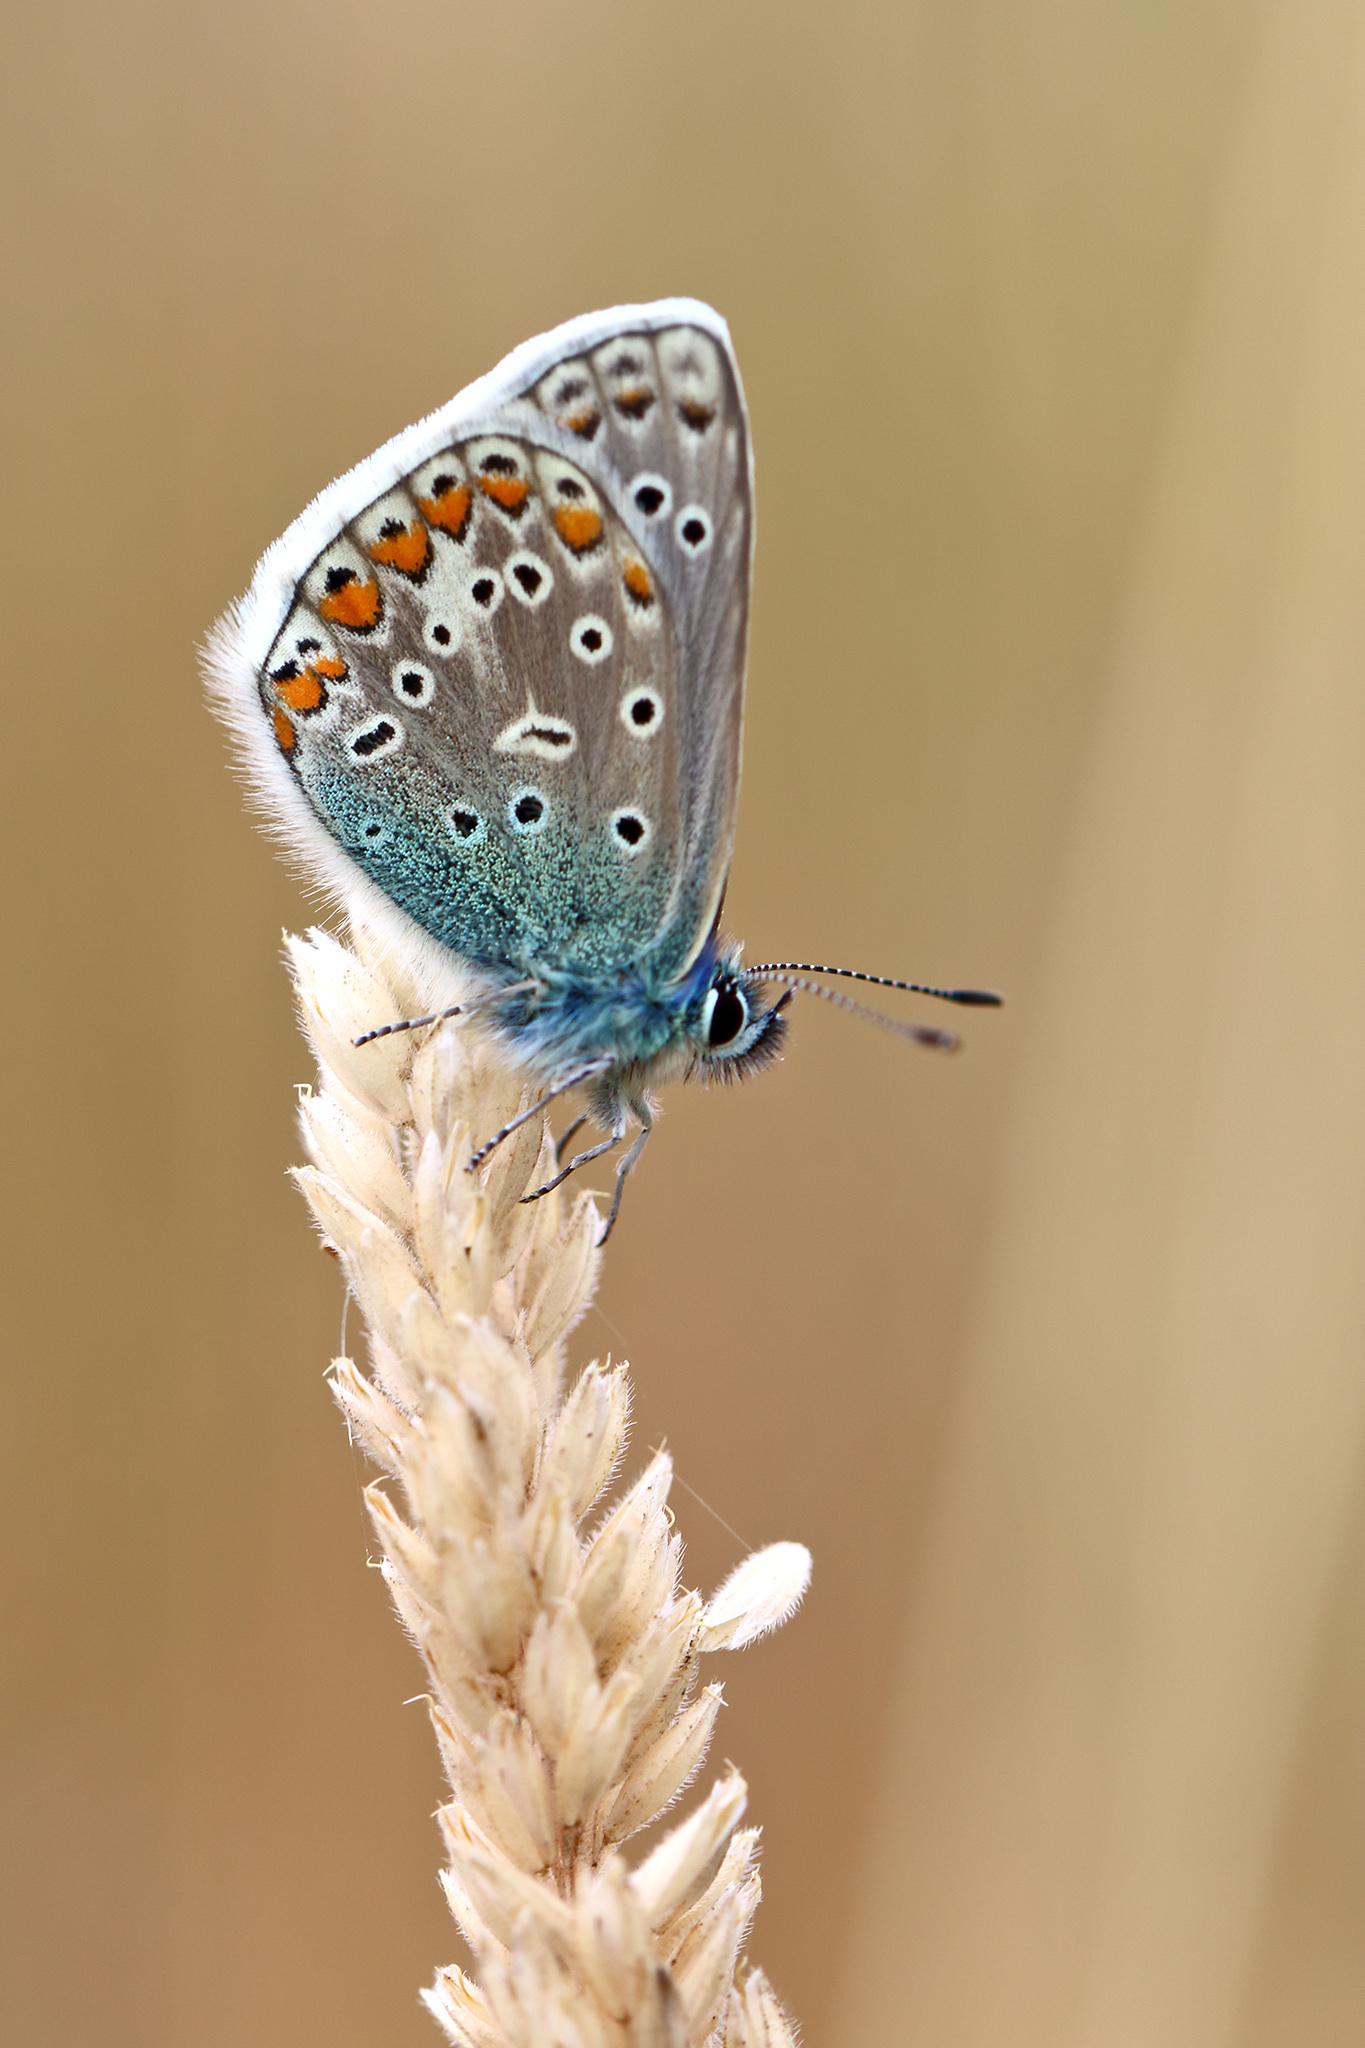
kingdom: Animalia
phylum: Arthropoda
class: Insecta
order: Lepidoptera
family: Lycaenidae
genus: Polyommatus
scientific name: Polyommatus icarus
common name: Common blue
